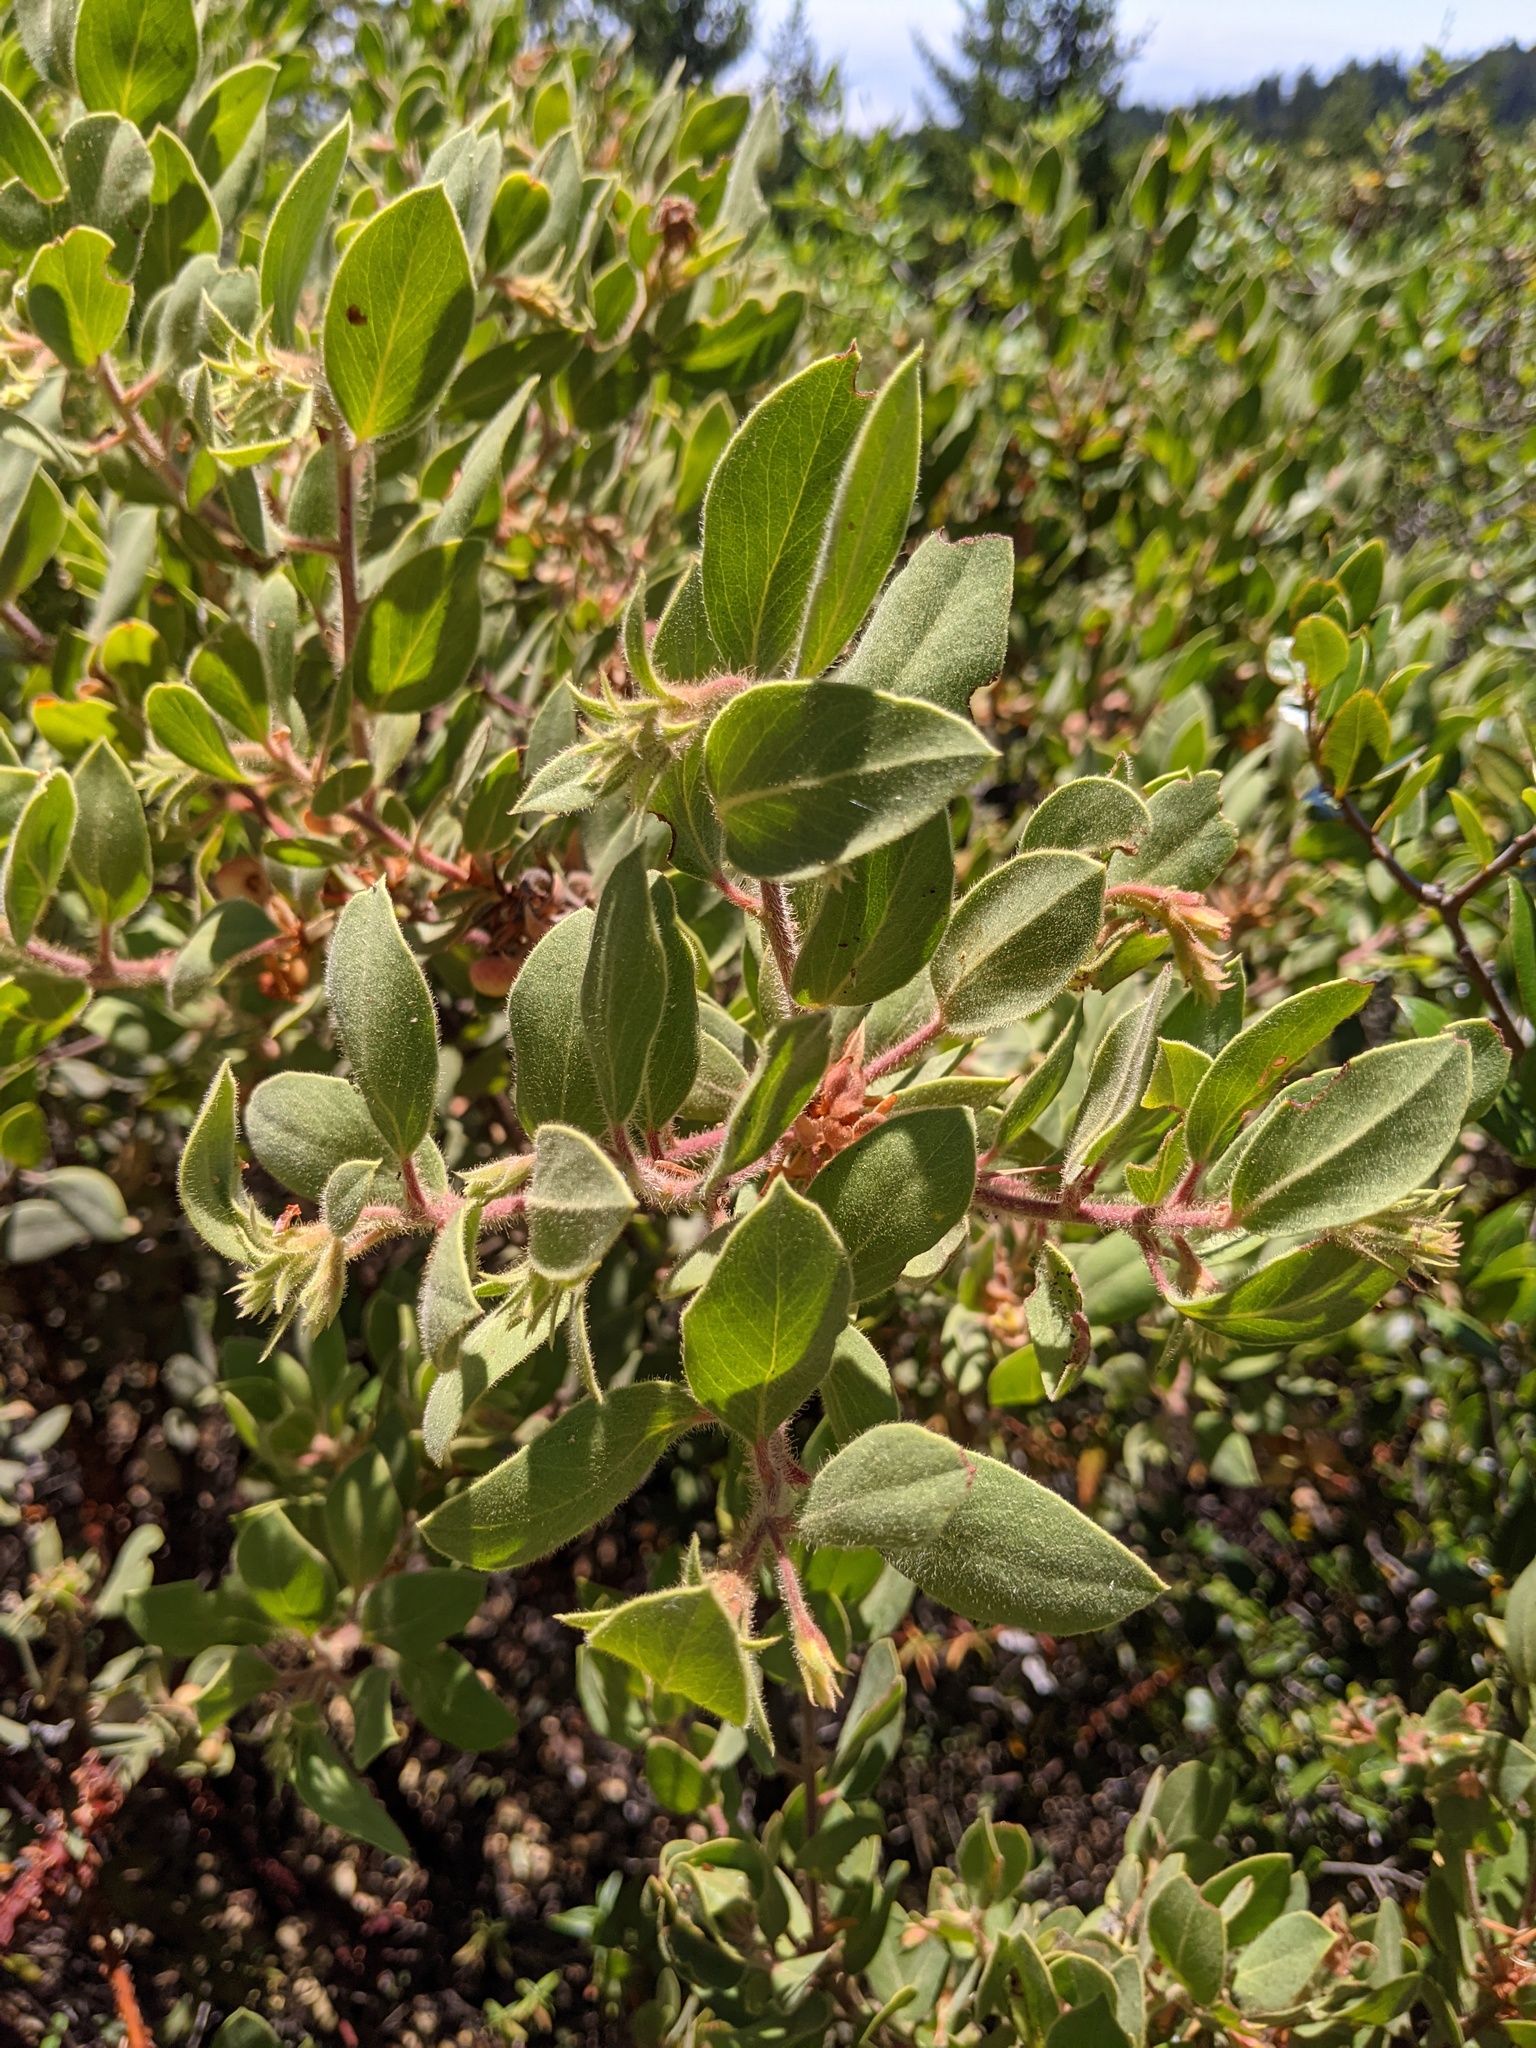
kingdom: Plantae
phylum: Tracheophyta
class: Magnoliopsida
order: Ericales
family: Ericaceae
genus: Arctostaphylos
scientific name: Arctostaphylos glandulosa
